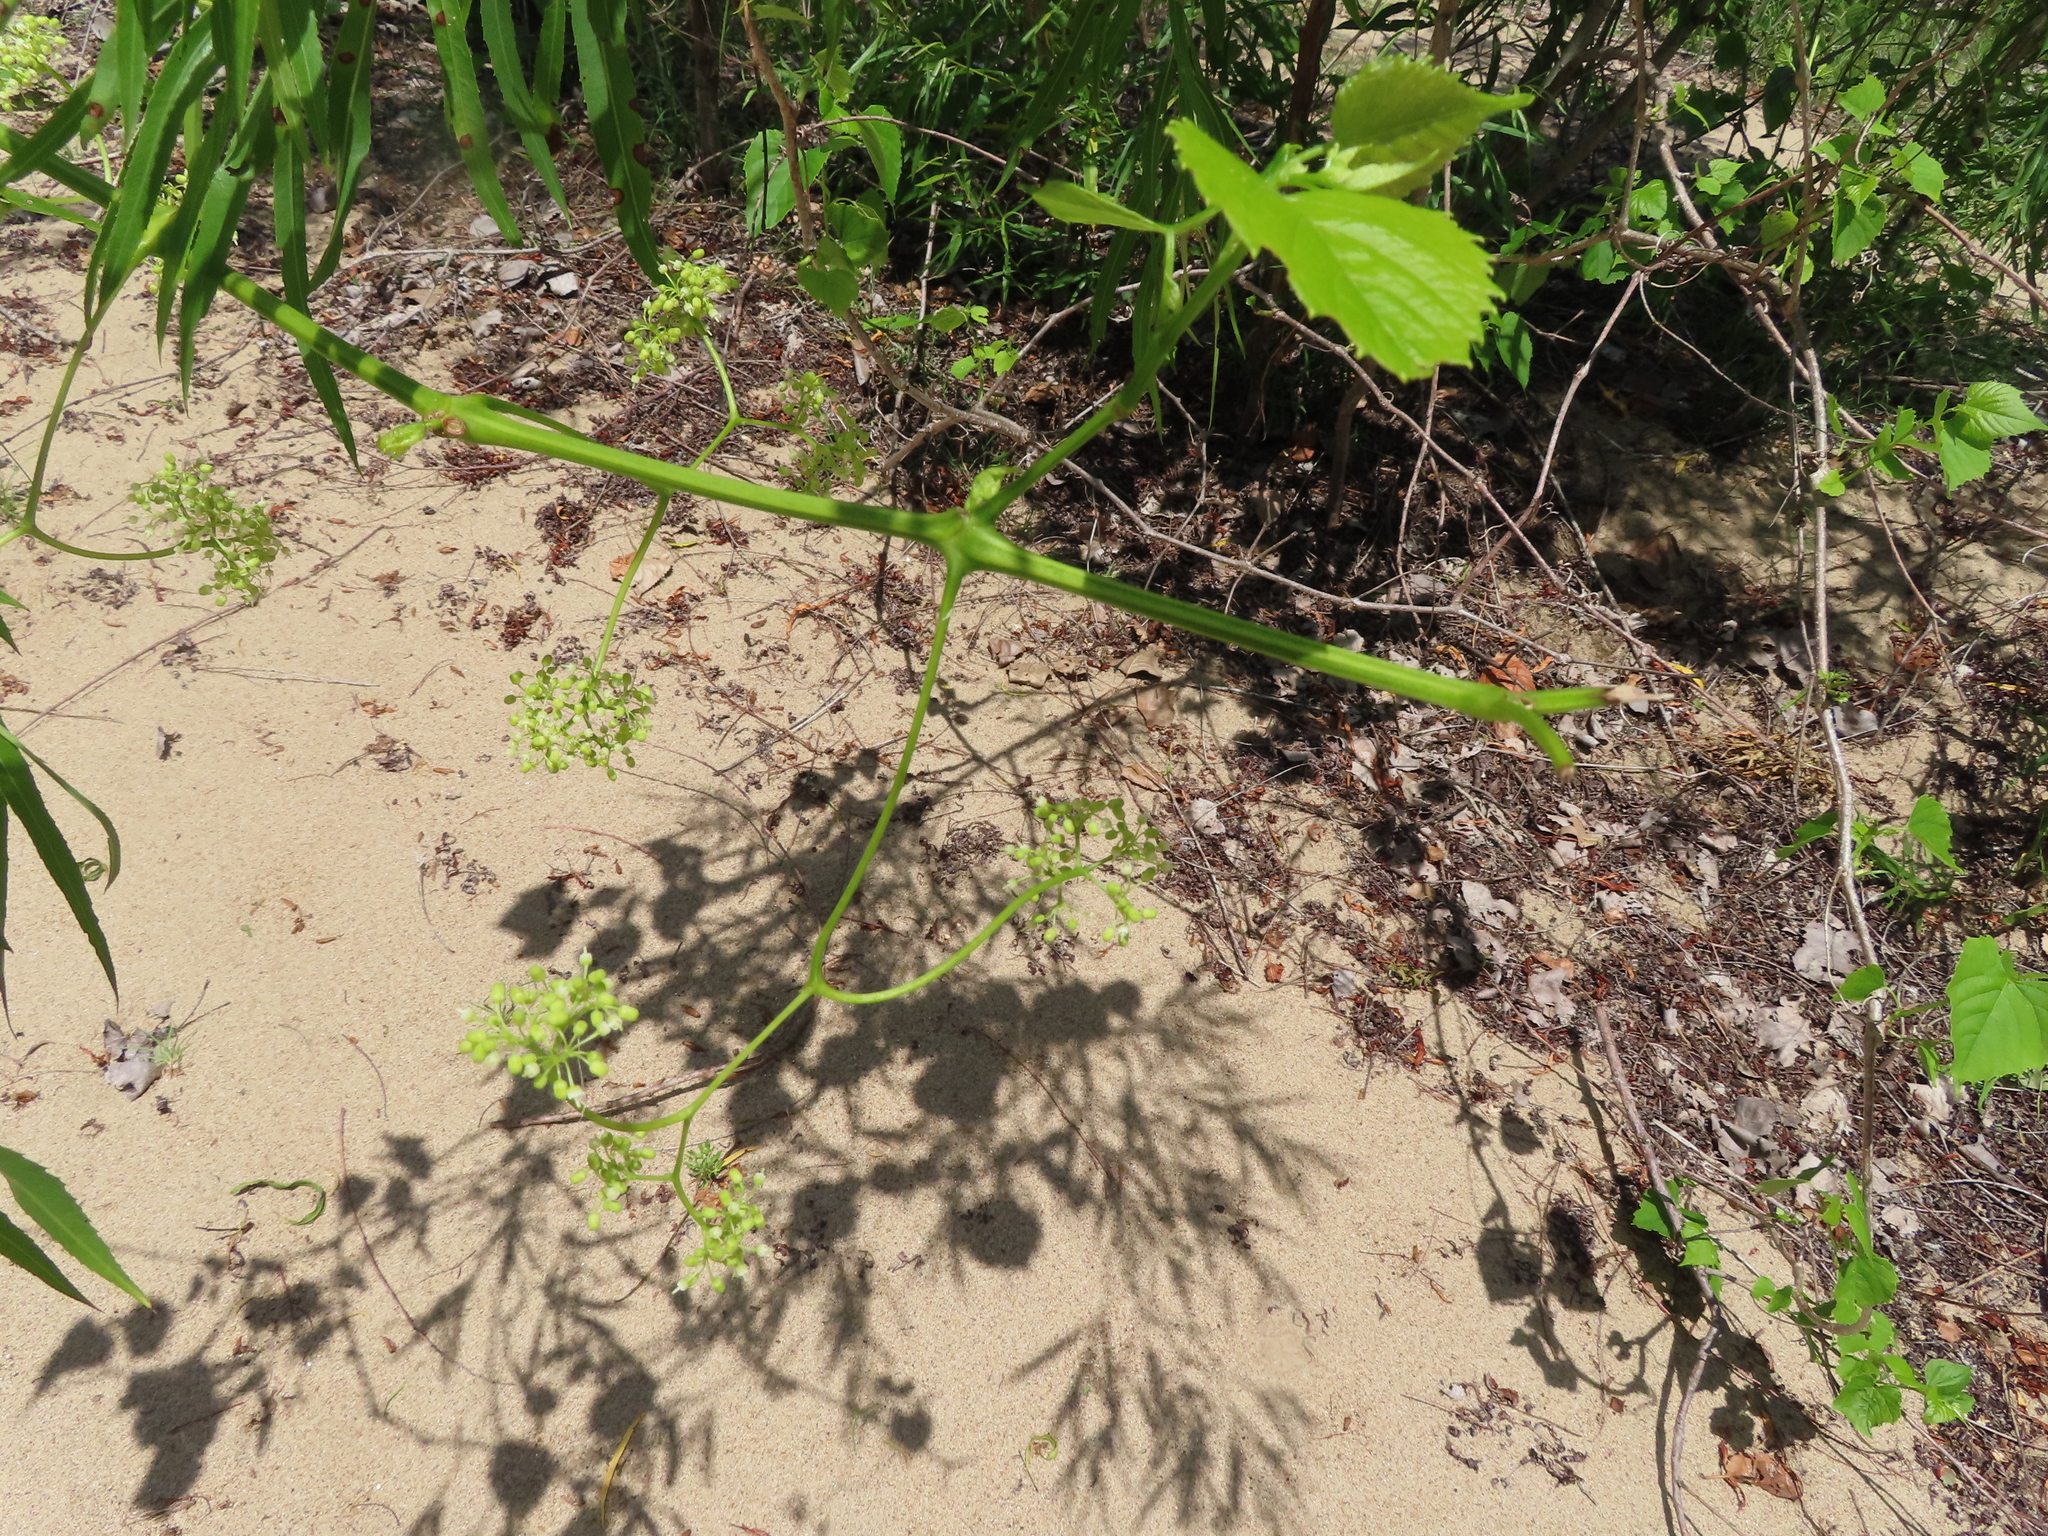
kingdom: Plantae
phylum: Tracheophyta
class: Magnoliopsida
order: Vitales
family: Vitaceae
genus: Ampelopsis
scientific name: Ampelopsis cordata
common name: Heart-leaf ampelopsis
